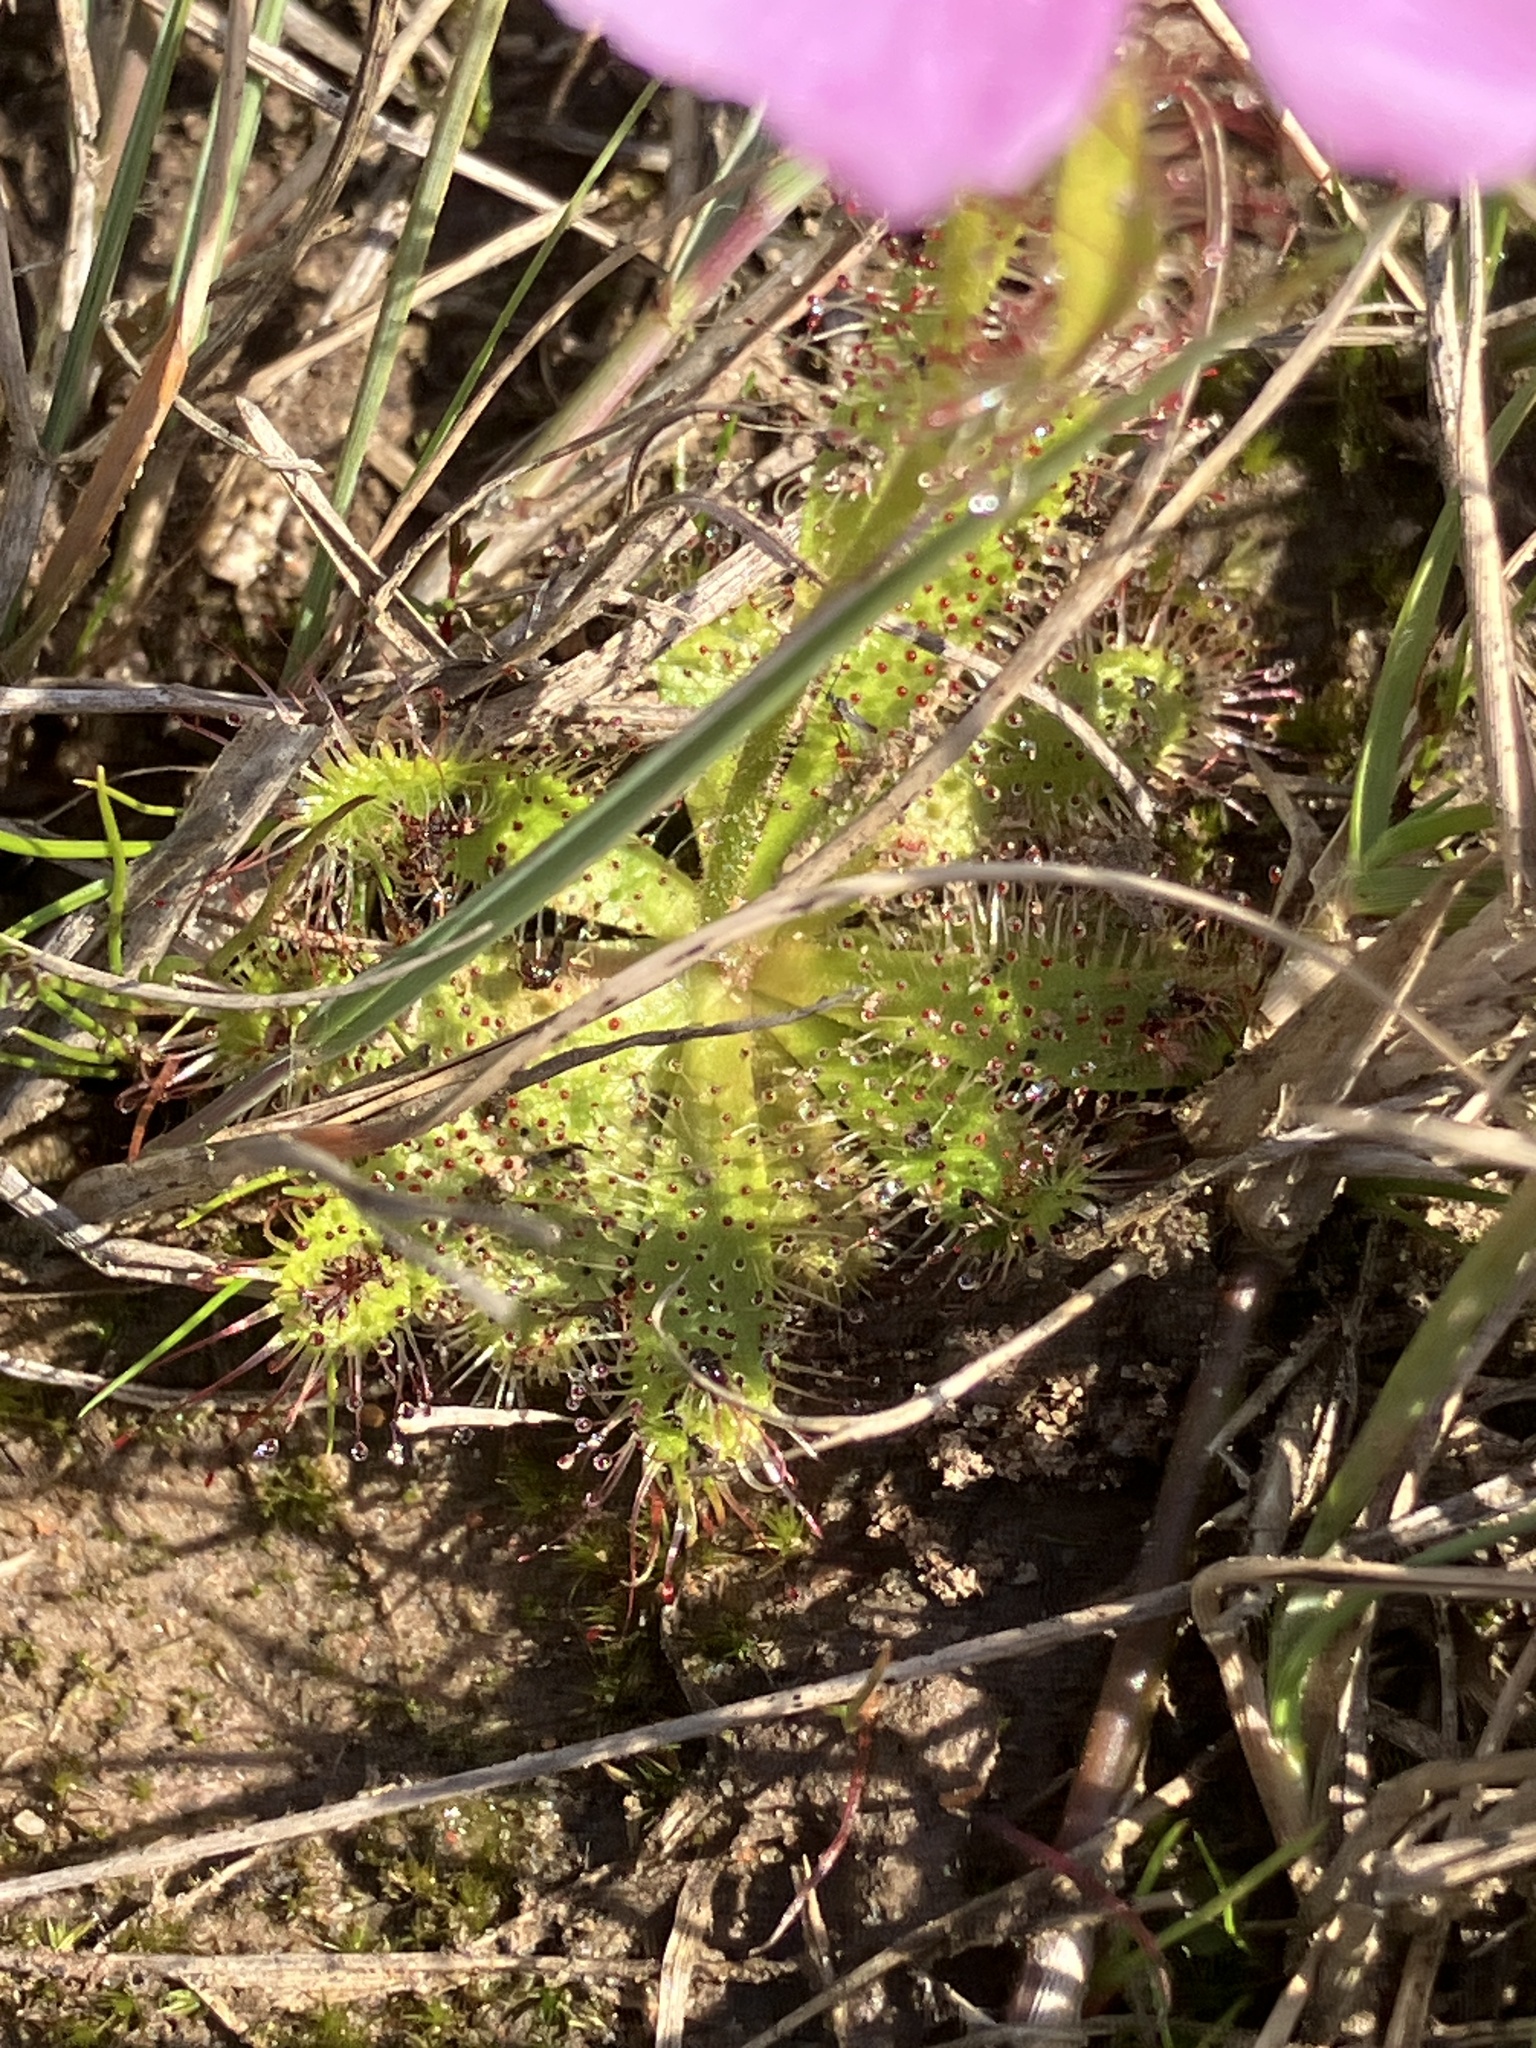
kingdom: Plantae
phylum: Tracheophyta
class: Magnoliopsida
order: Caryophyllales
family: Droseraceae
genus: Drosera
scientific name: Drosera cistiflora
